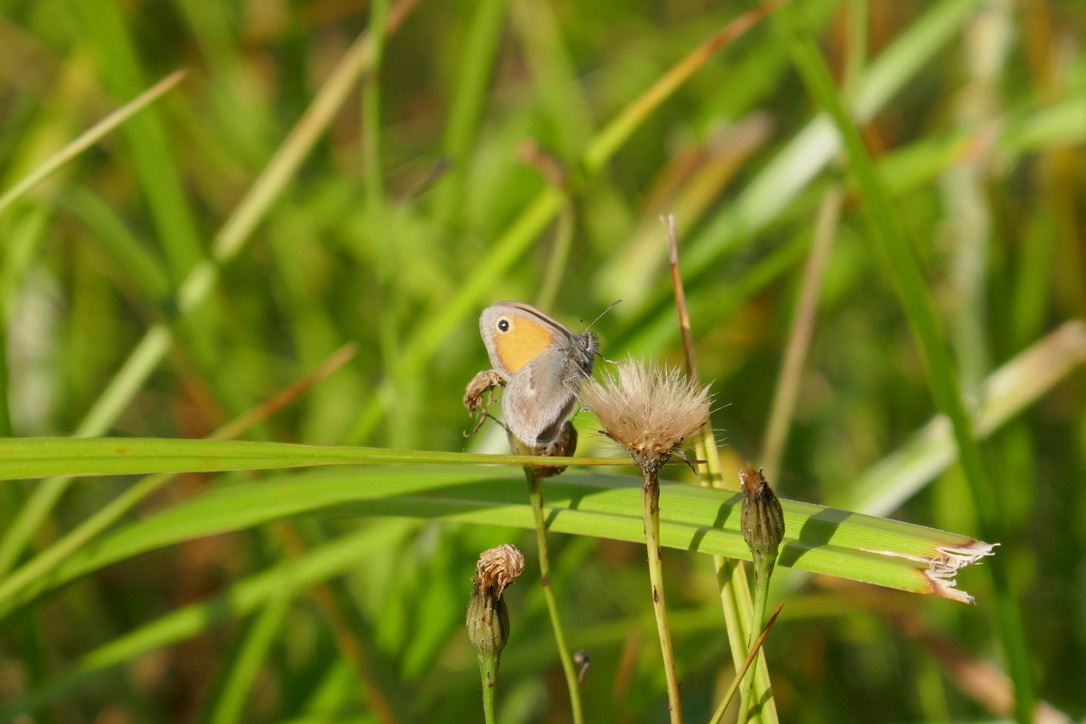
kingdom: Animalia
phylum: Arthropoda
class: Insecta
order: Lepidoptera
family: Nymphalidae
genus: Coenonympha
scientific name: Coenonympha pamphilus
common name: Small heath
